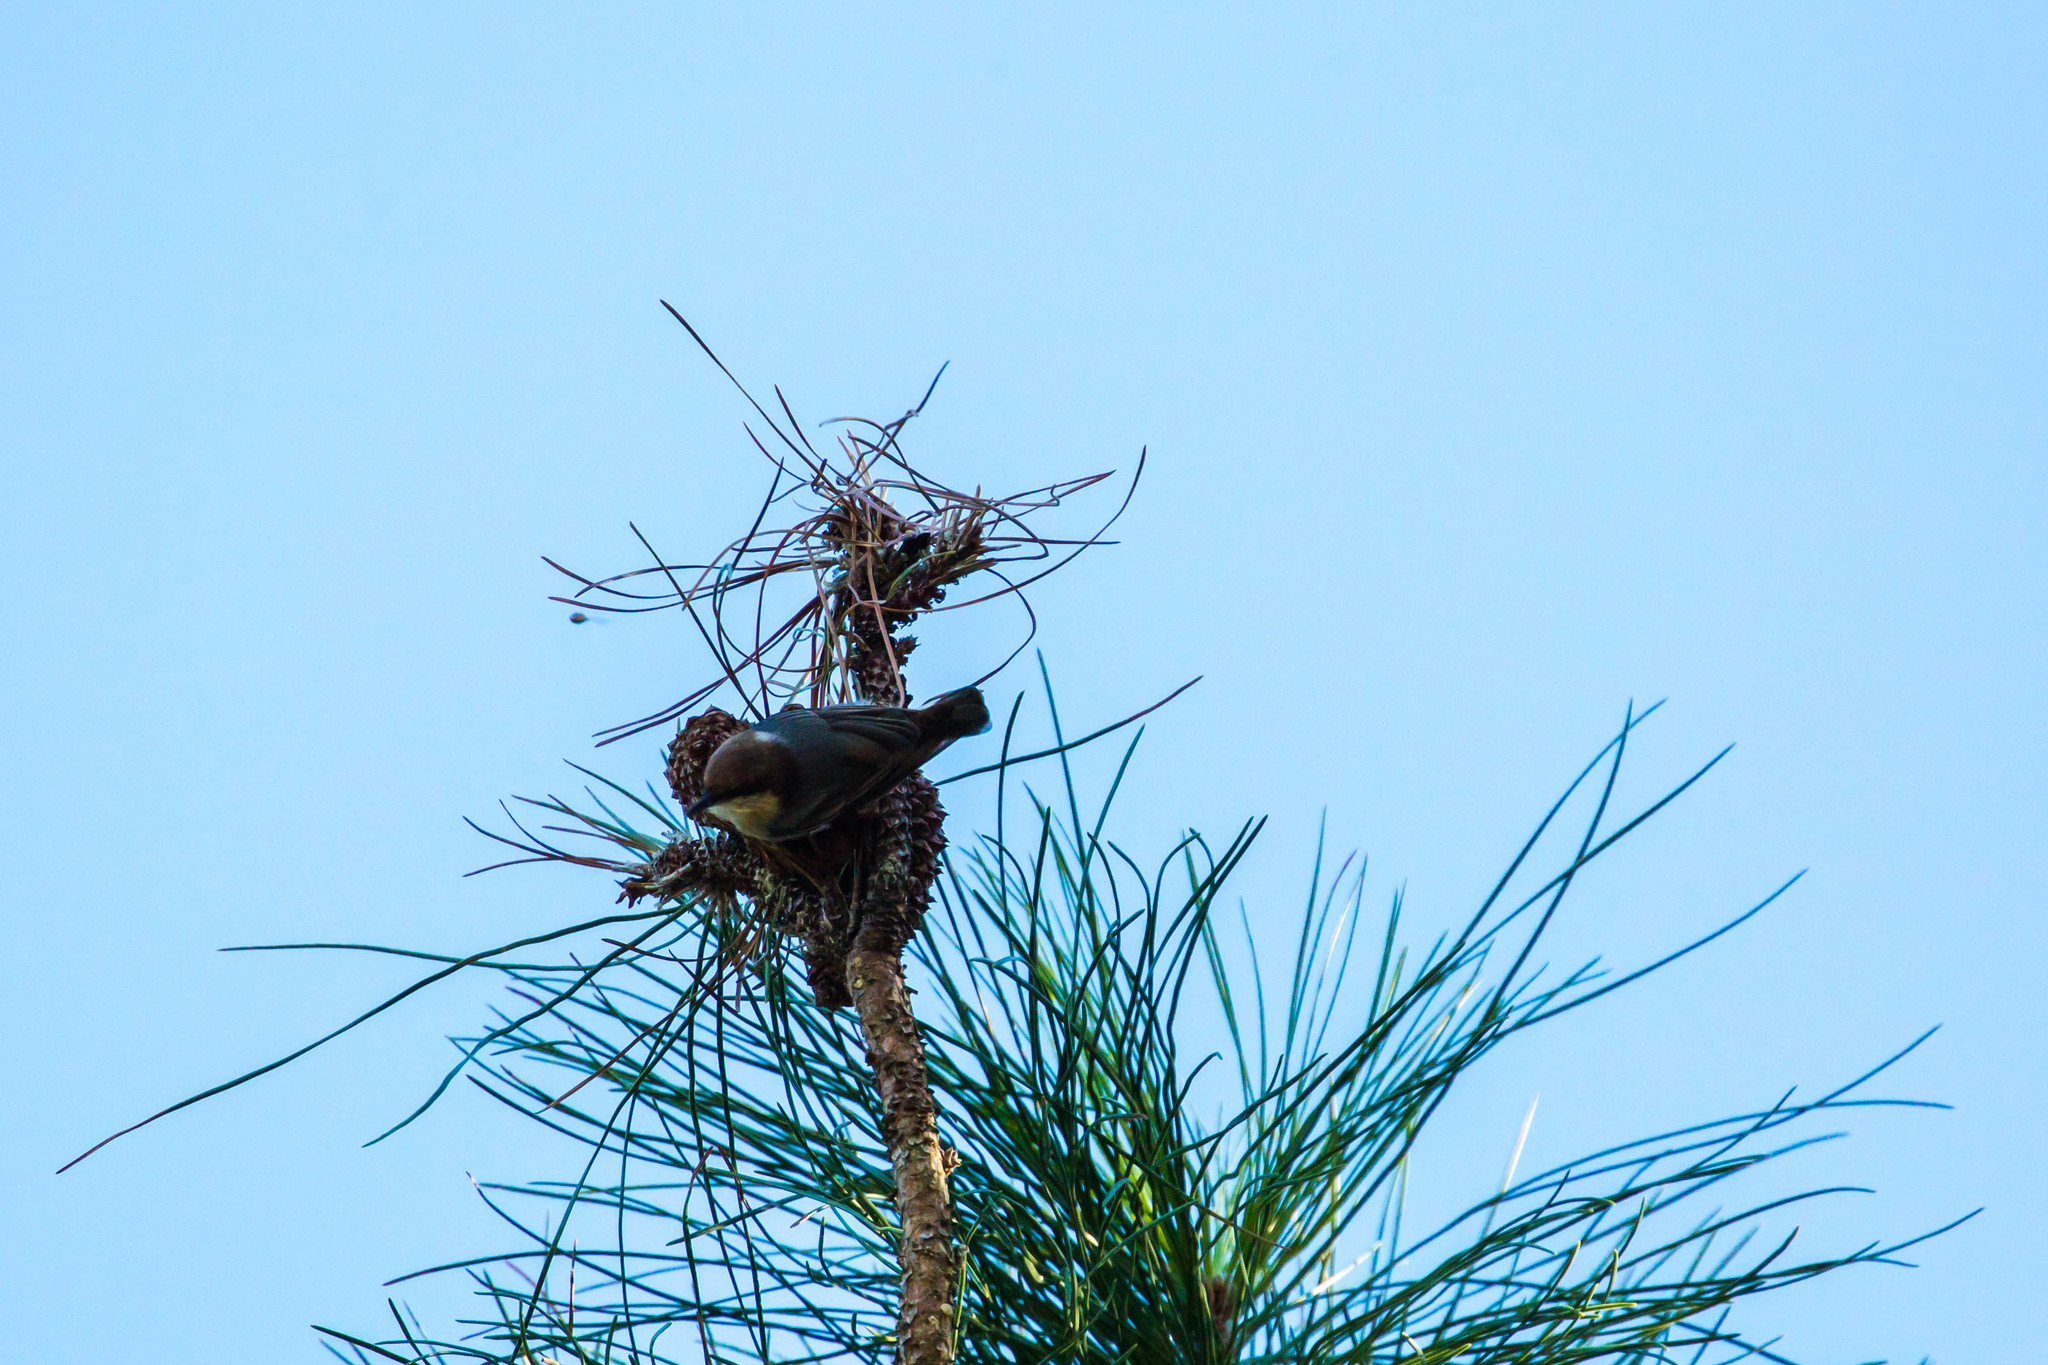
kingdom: Animalia
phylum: Chordata
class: Aves
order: Passeriformes
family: Sittidae
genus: Sitta
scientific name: Sitta pusilla
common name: Brown-headed nuthatch
